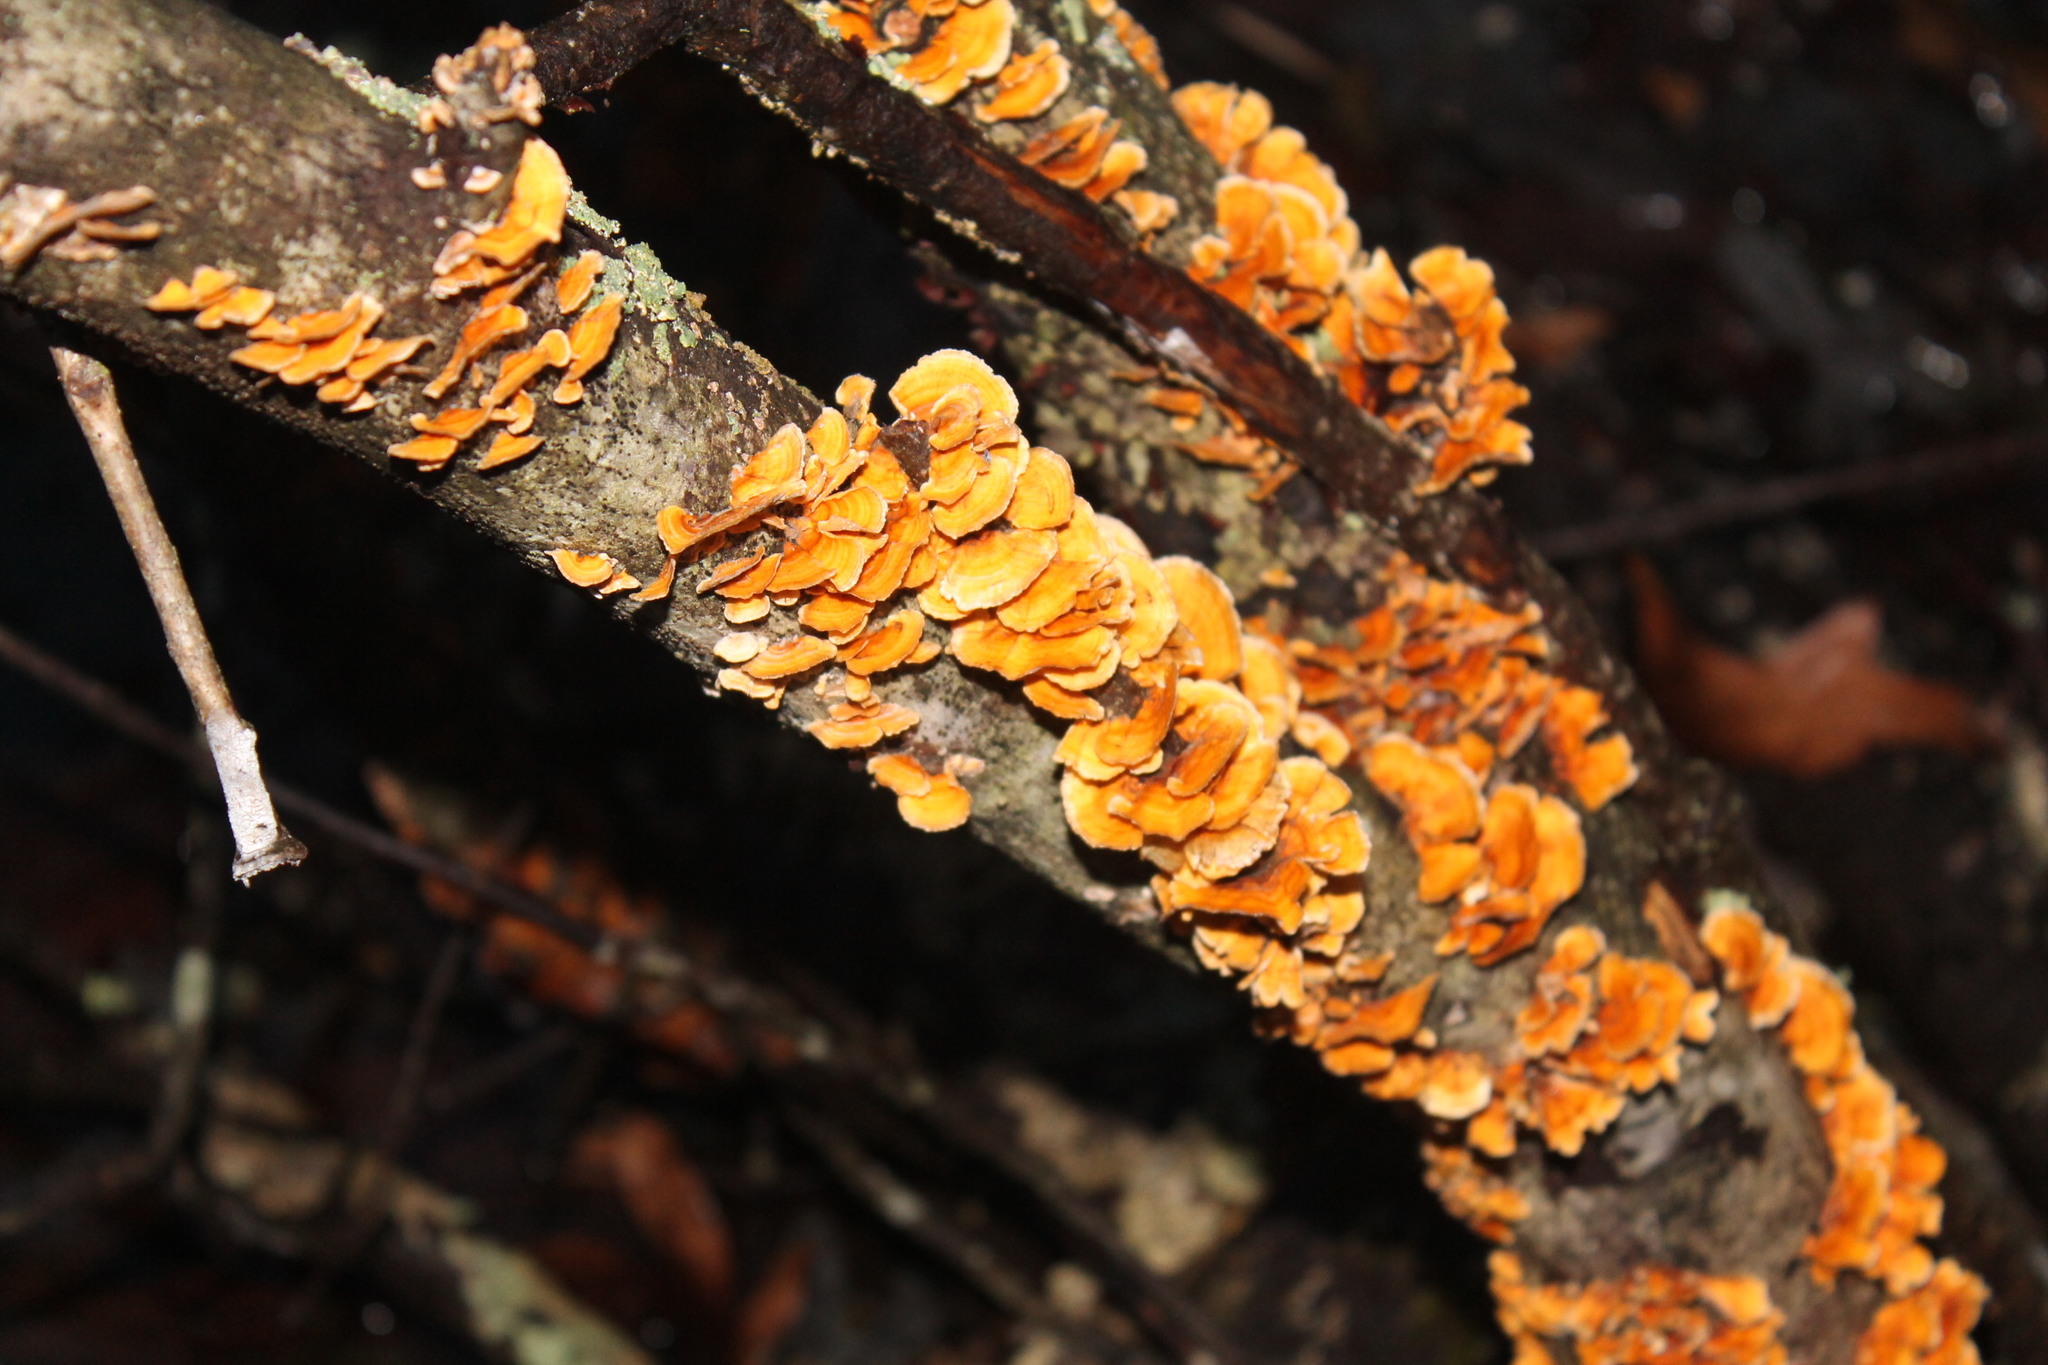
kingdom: Fungi
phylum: Basidiomycota
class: Agaricomycetes
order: Russulales
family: Stereaceae
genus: Stereum
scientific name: Stereum complicatum
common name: Crowded parchment
